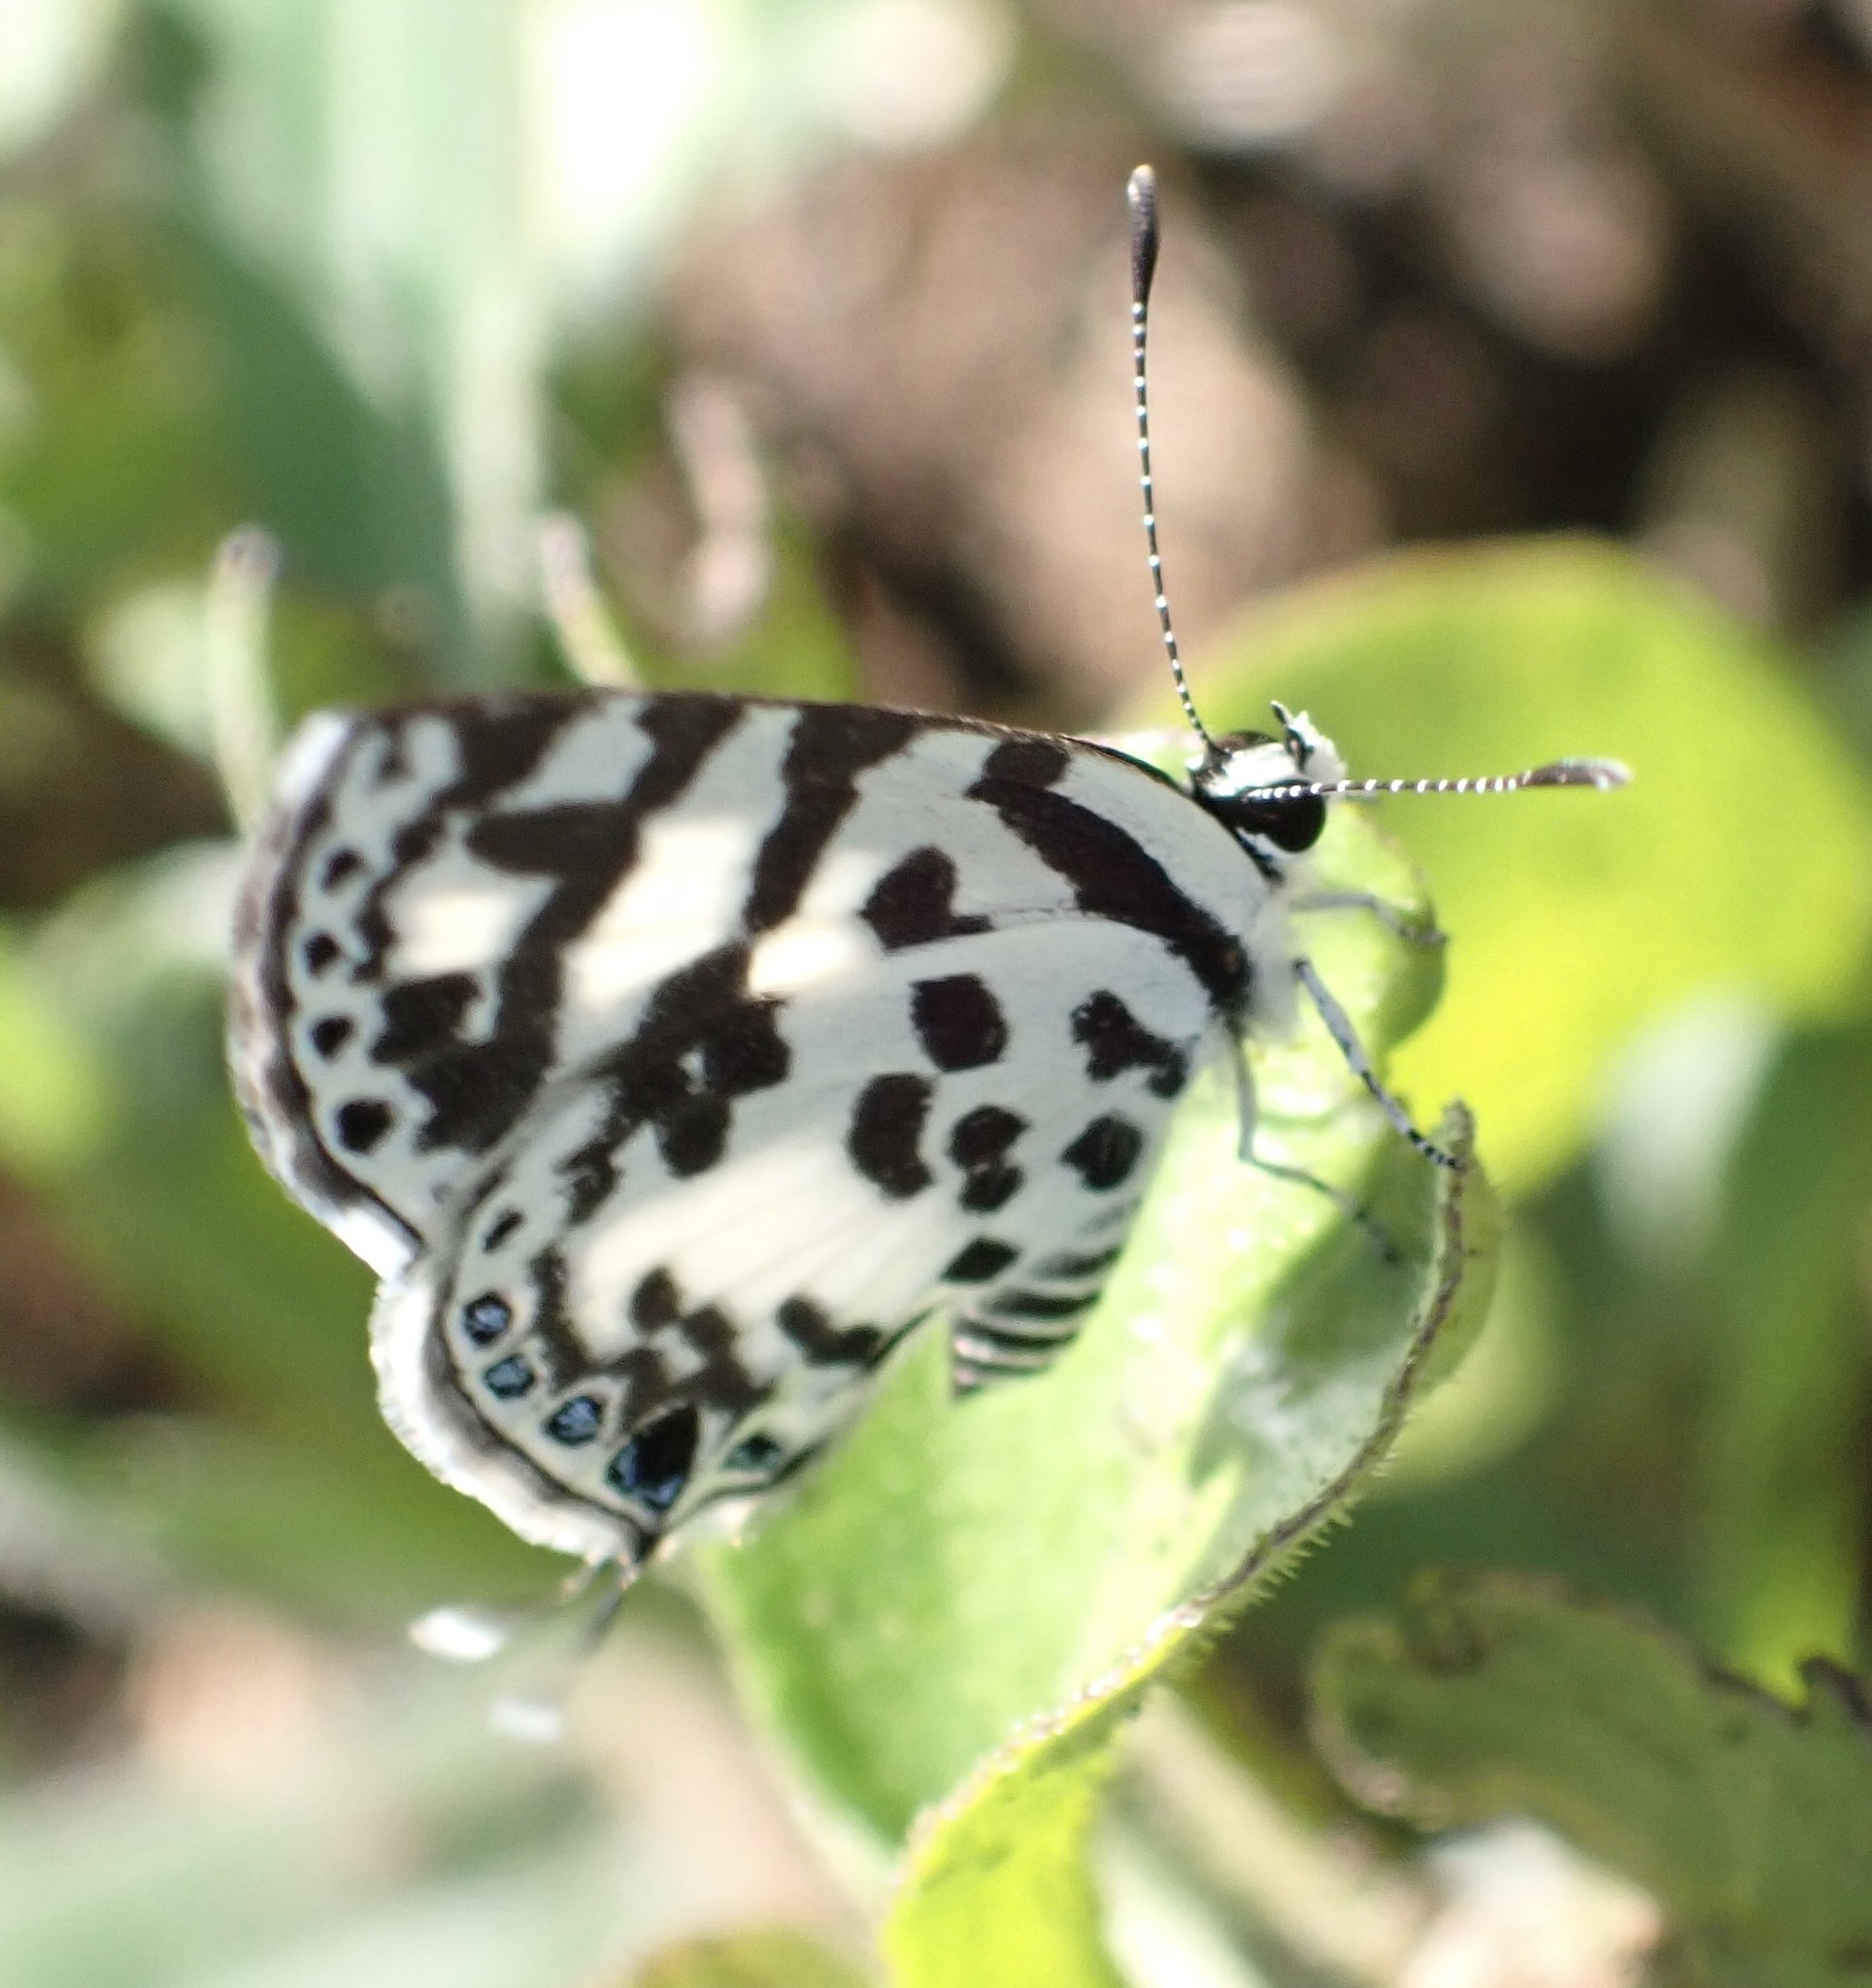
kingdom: Animalia
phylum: Arthropoda
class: Insecta
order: Lepidoptera
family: Lycaenidae
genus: Castalius
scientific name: Castalius melaena
